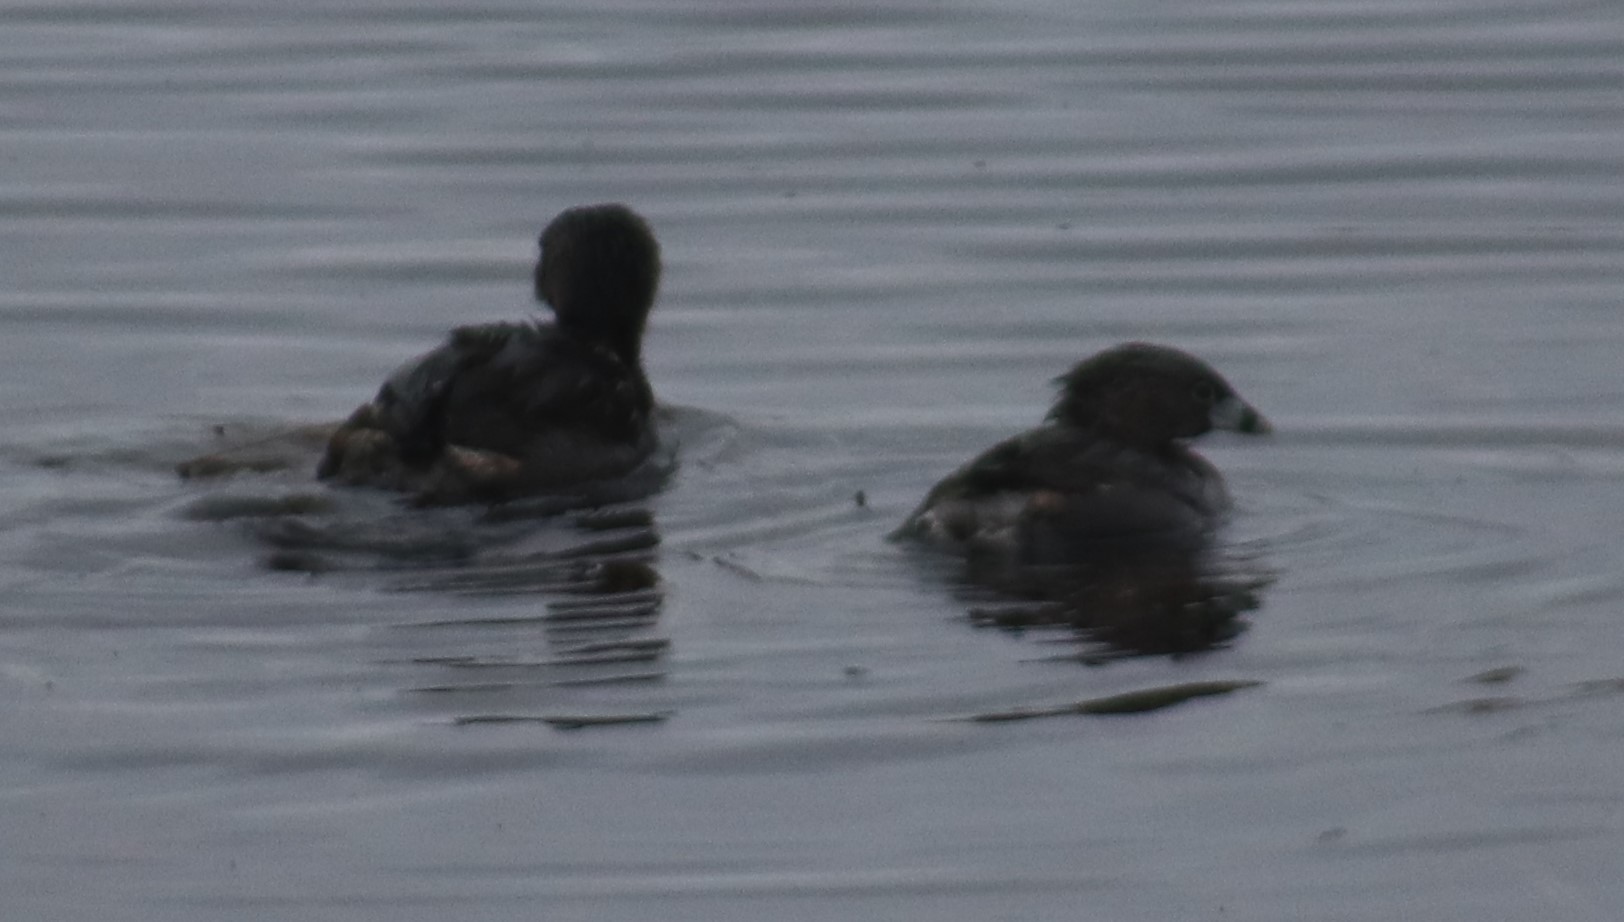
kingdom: Animalia
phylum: Chordata
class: Aves
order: Podicipediformes
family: Podicipedidae
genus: Podilymbus
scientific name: Podilymbus podiceps
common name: Pied-billed grebe
